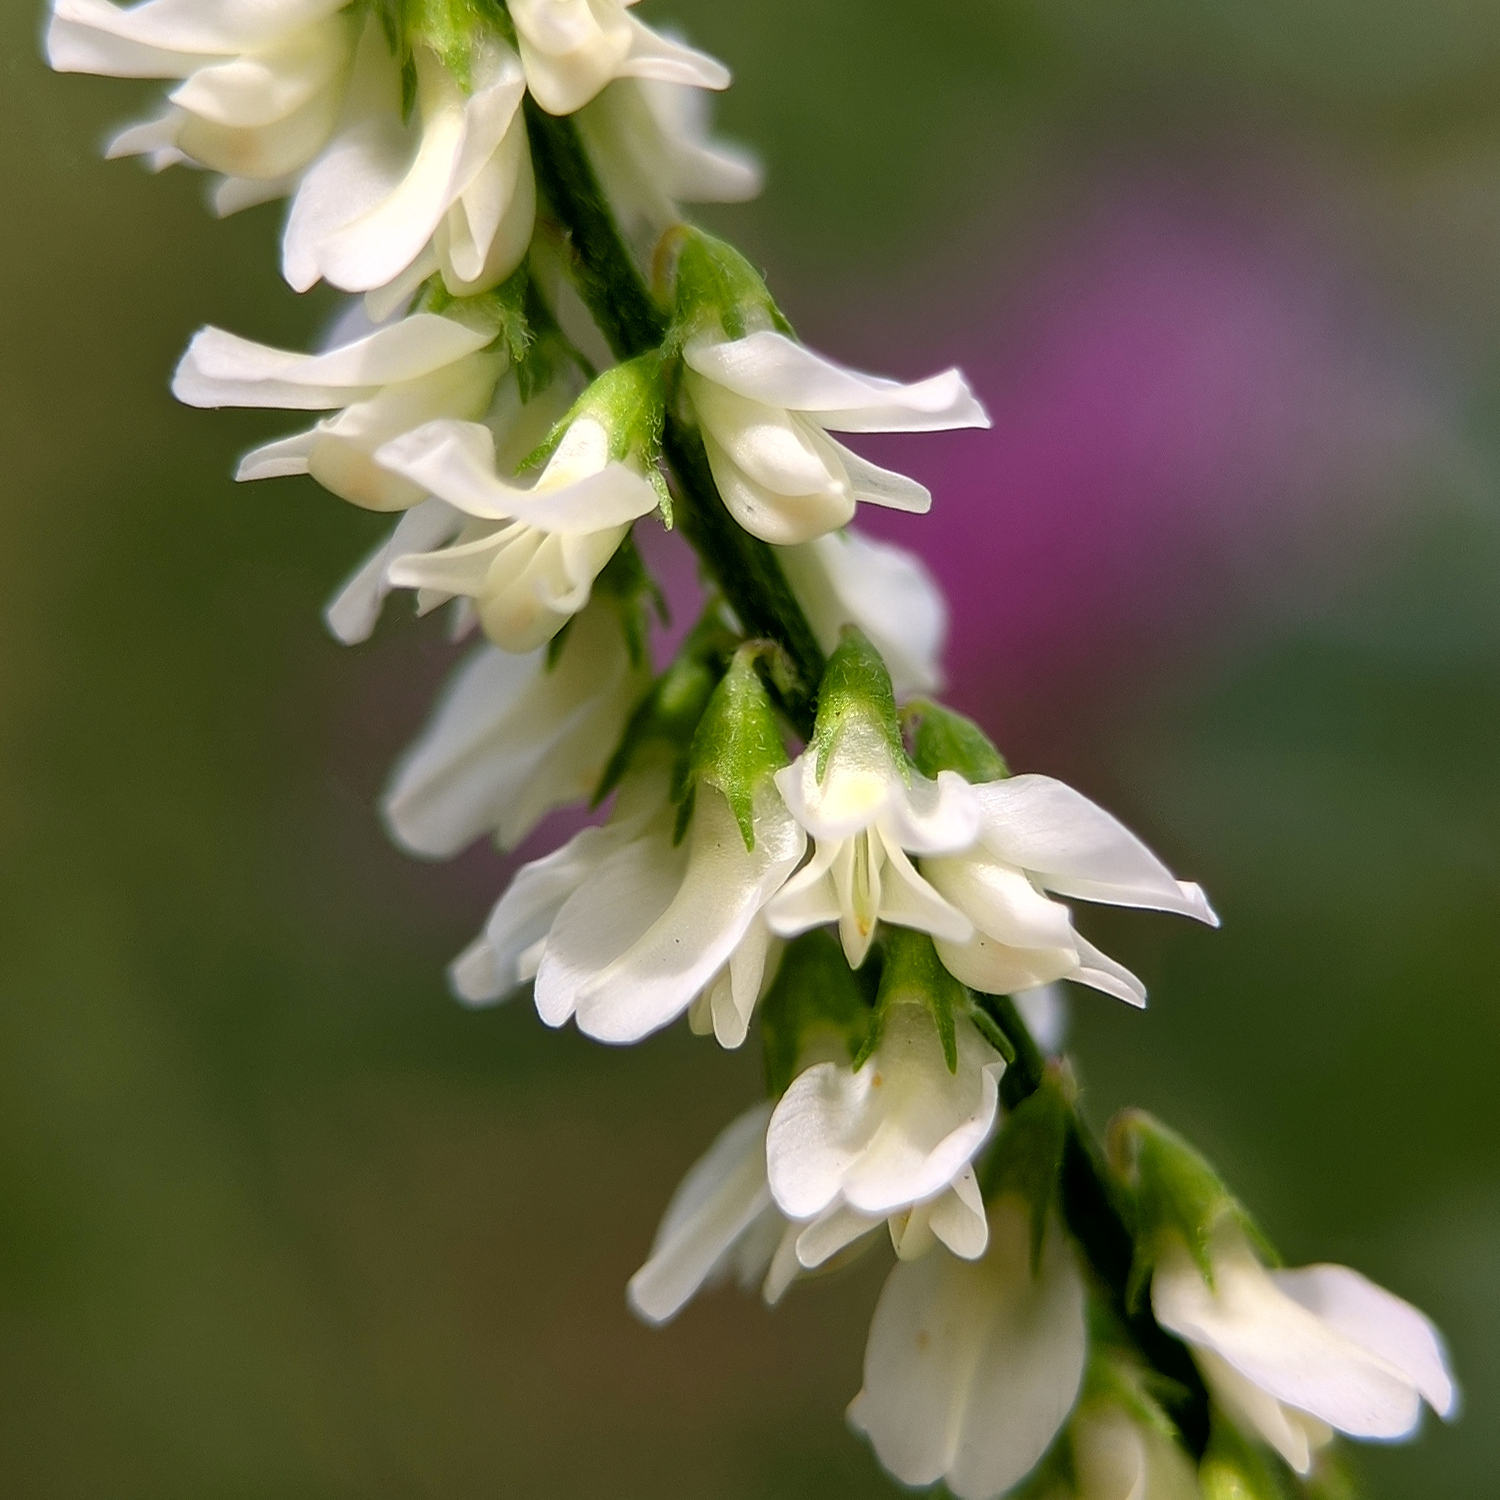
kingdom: Plantae
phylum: Tracheophyta
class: Magnoliopsida
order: Fabales
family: Fabaceae
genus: Melilotus
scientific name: Melilotus albus
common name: White melilot
